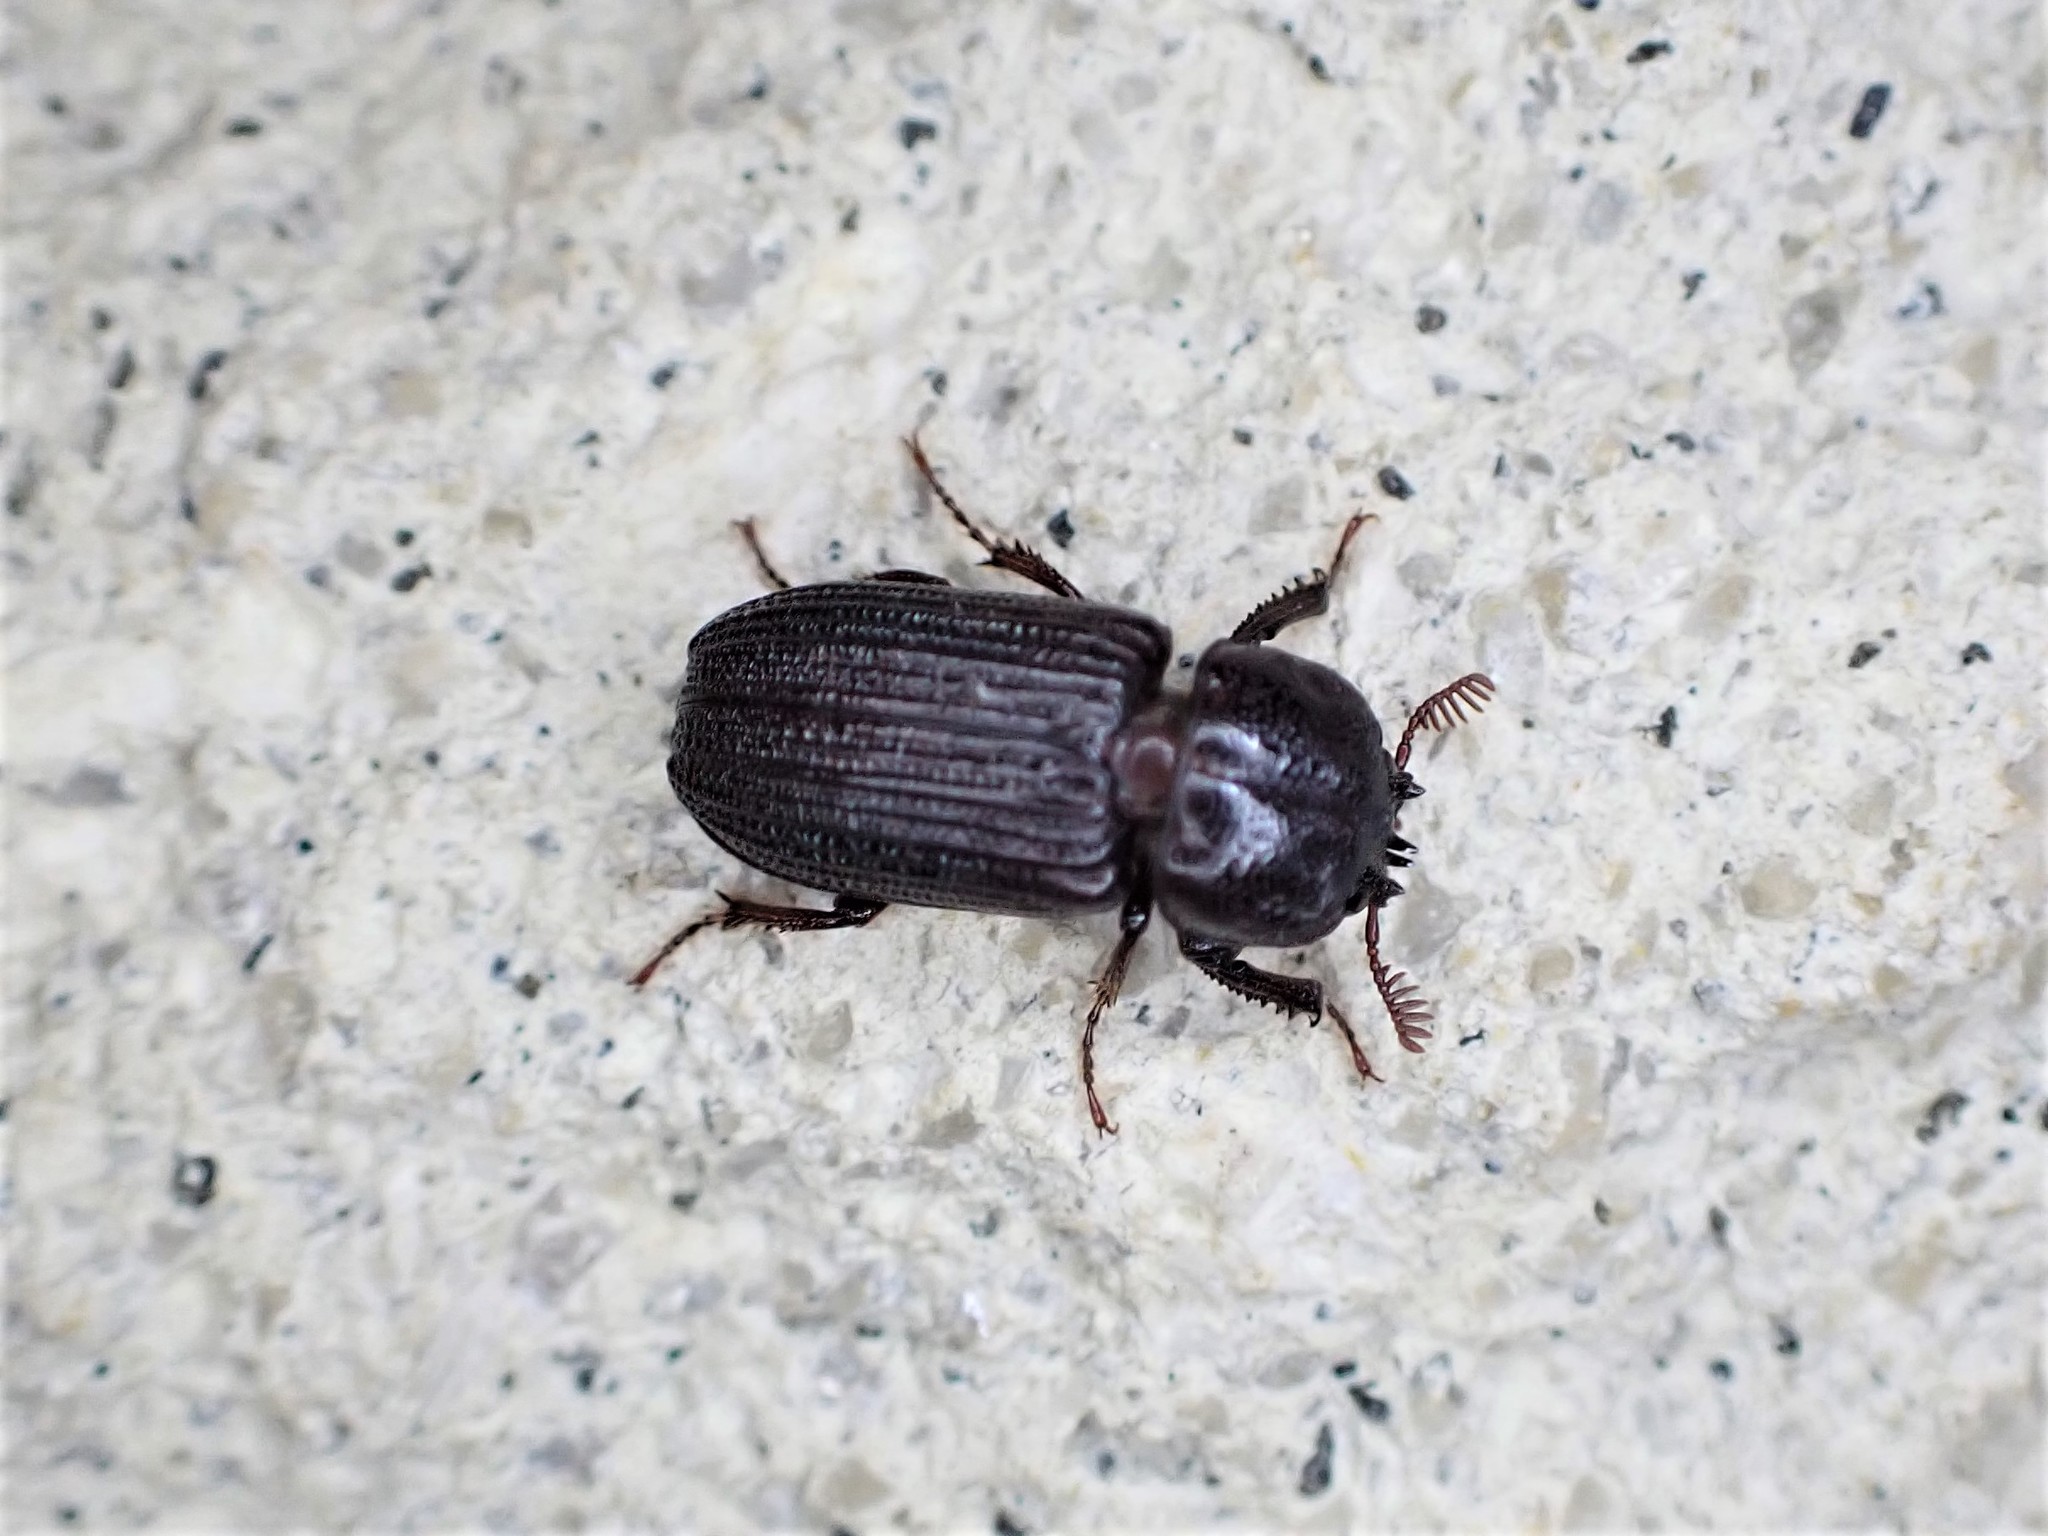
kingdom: Animalia
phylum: Arthropoda
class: Insecta
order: Coleoptera
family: Lucanidae
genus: Syndesus
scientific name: Syndesus cornutus
